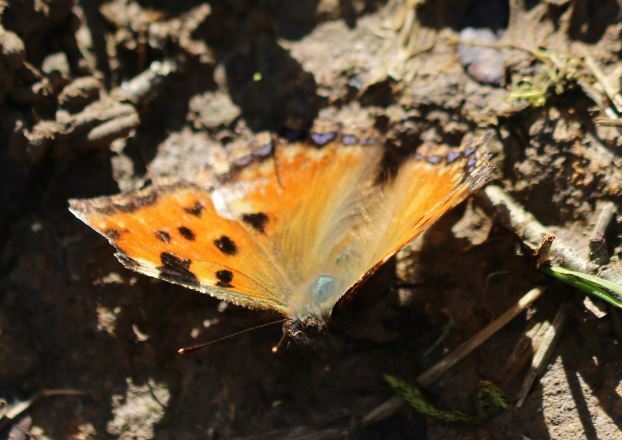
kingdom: Animalia
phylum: Arthropoda
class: Insecta
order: Lepidoptera
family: Nymphalidae
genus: Nymphalis
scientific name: Nymphalis polychloros
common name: Large tortoiseshell
